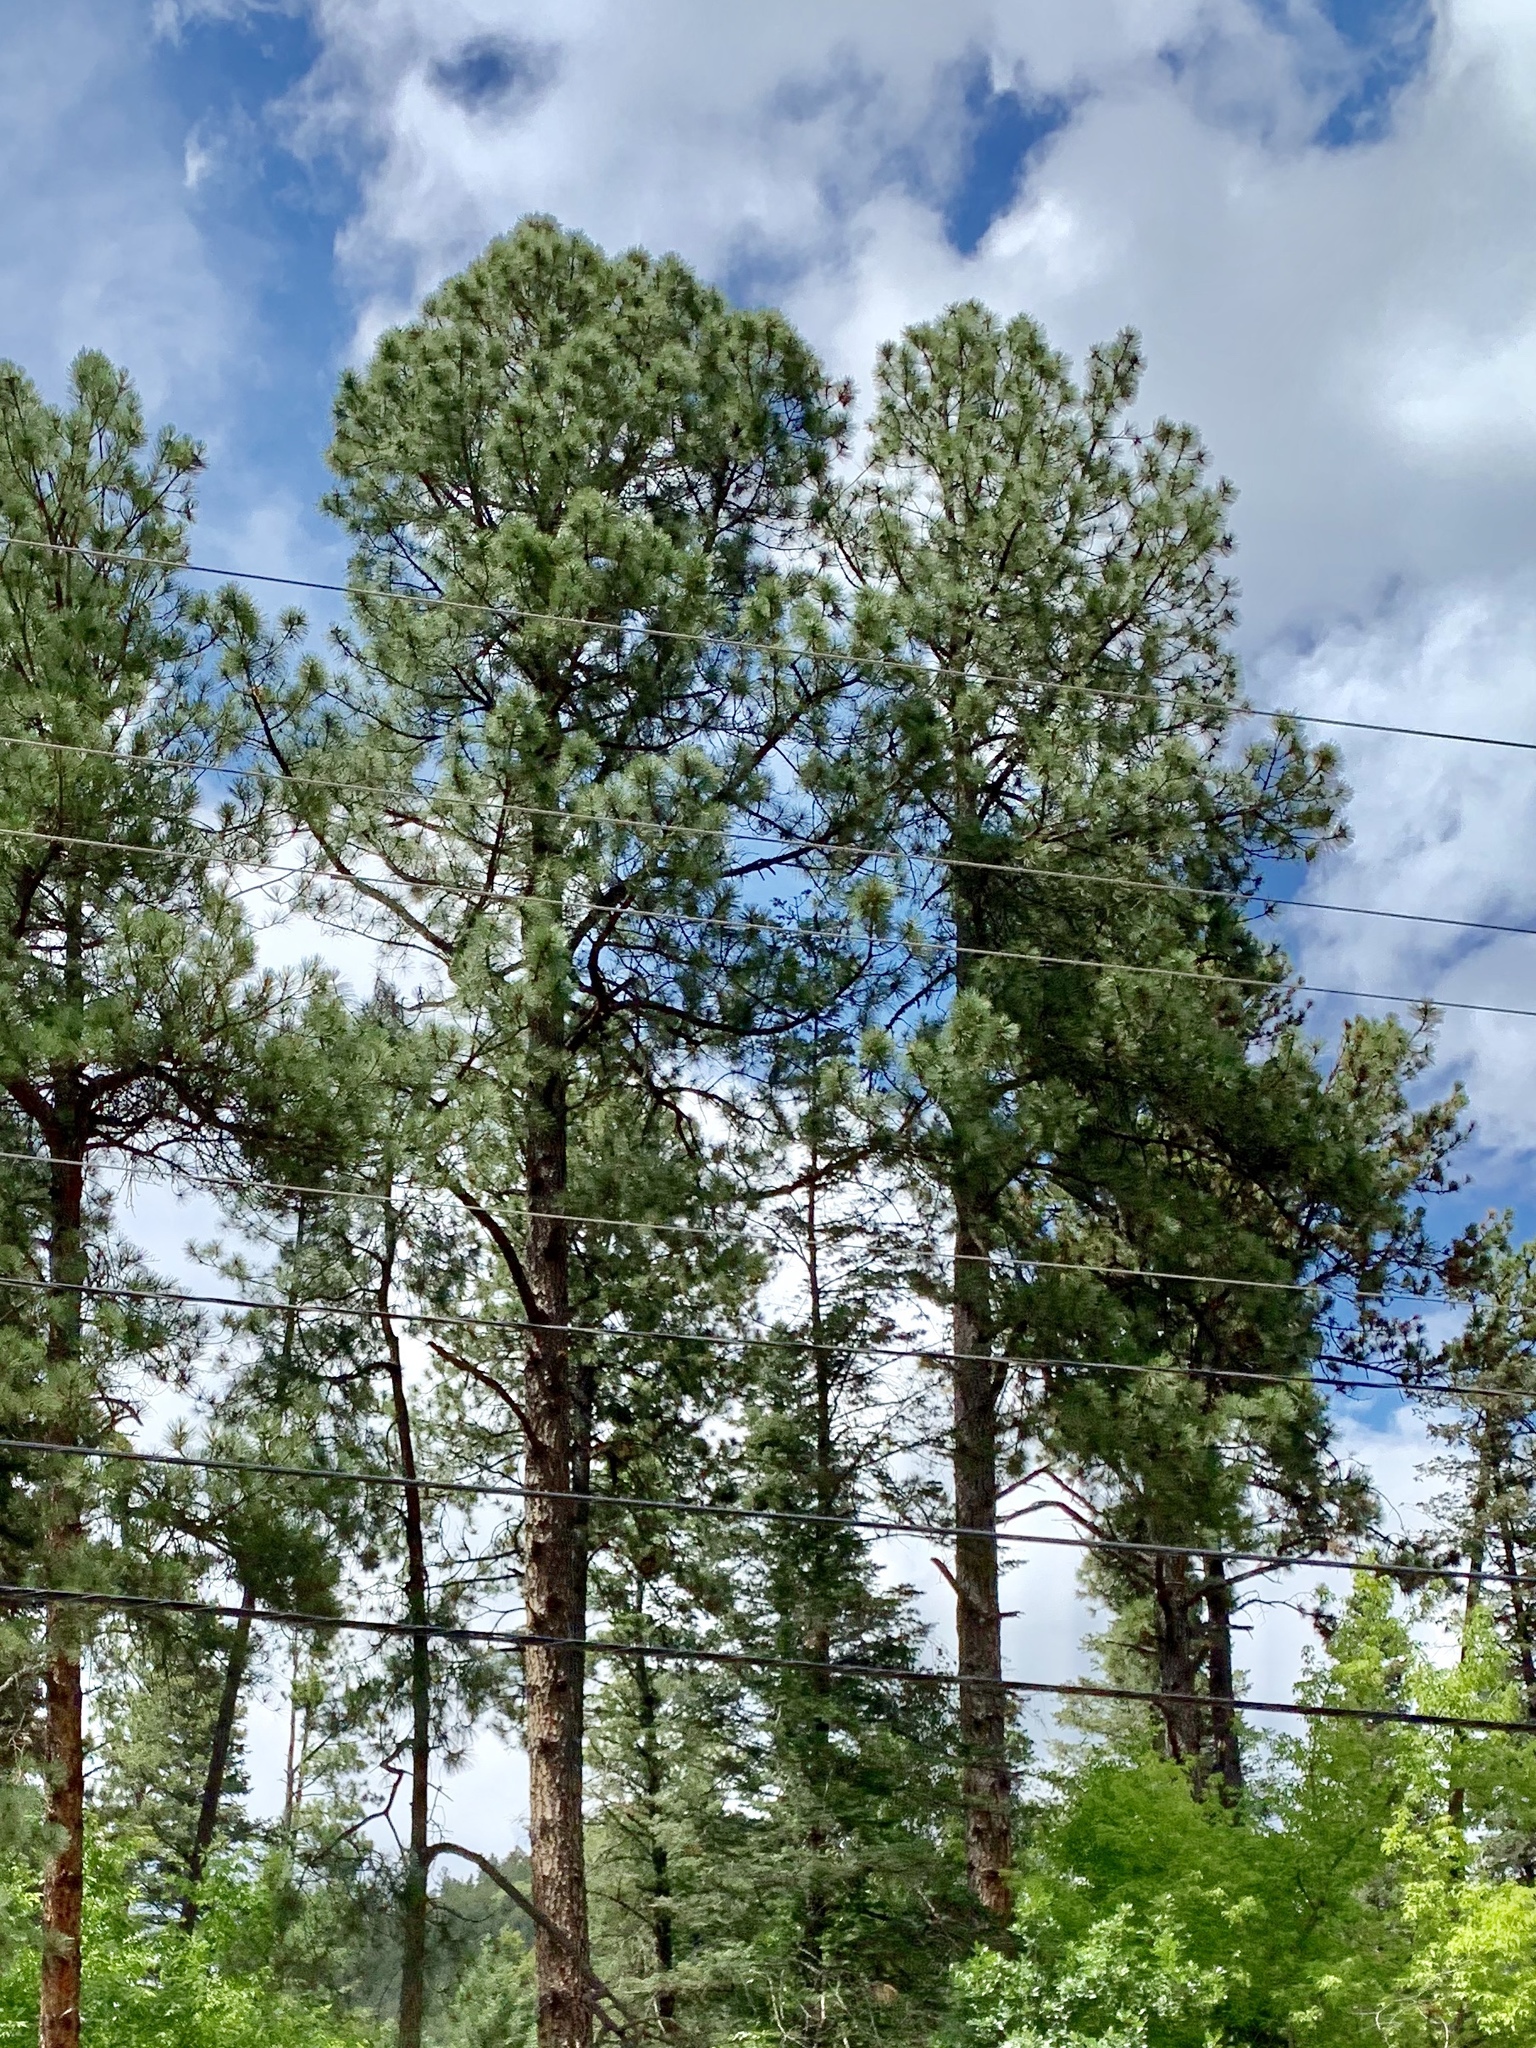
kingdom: Plantae
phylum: Tracheophyta
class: Pinopsida
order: Pinales
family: Pinaceae
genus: Pinus
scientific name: Pinus ponderosa
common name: Western yellow-pine
